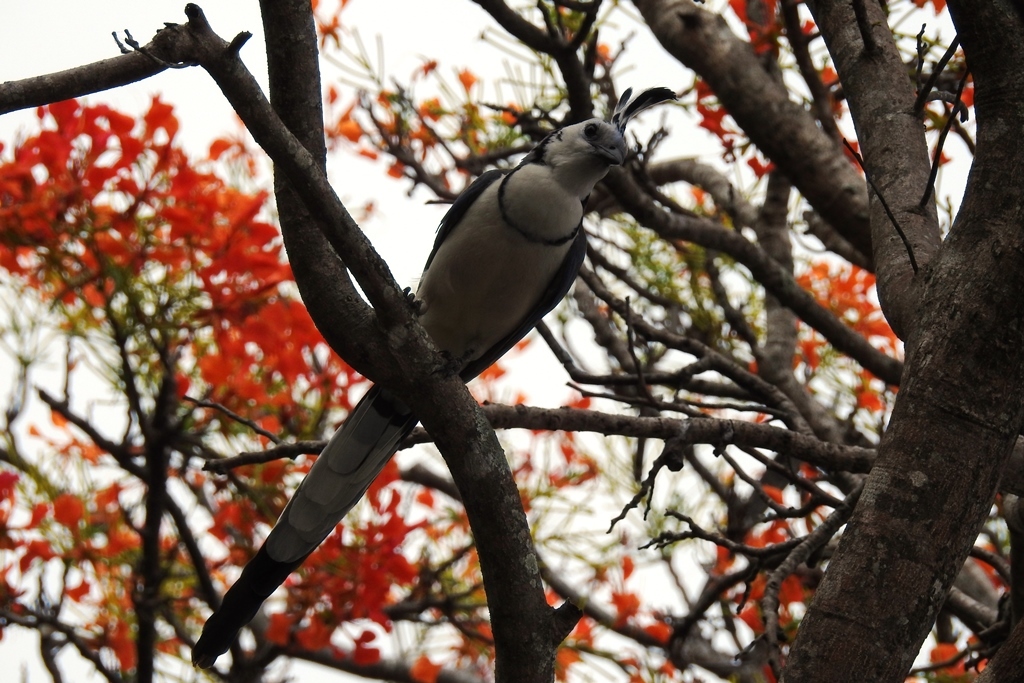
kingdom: Animalia
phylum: Chordata
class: Aves
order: Passeriformes
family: Corvidae
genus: Calocitta
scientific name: Calocitta formosa
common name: White-throated magpie-jay
